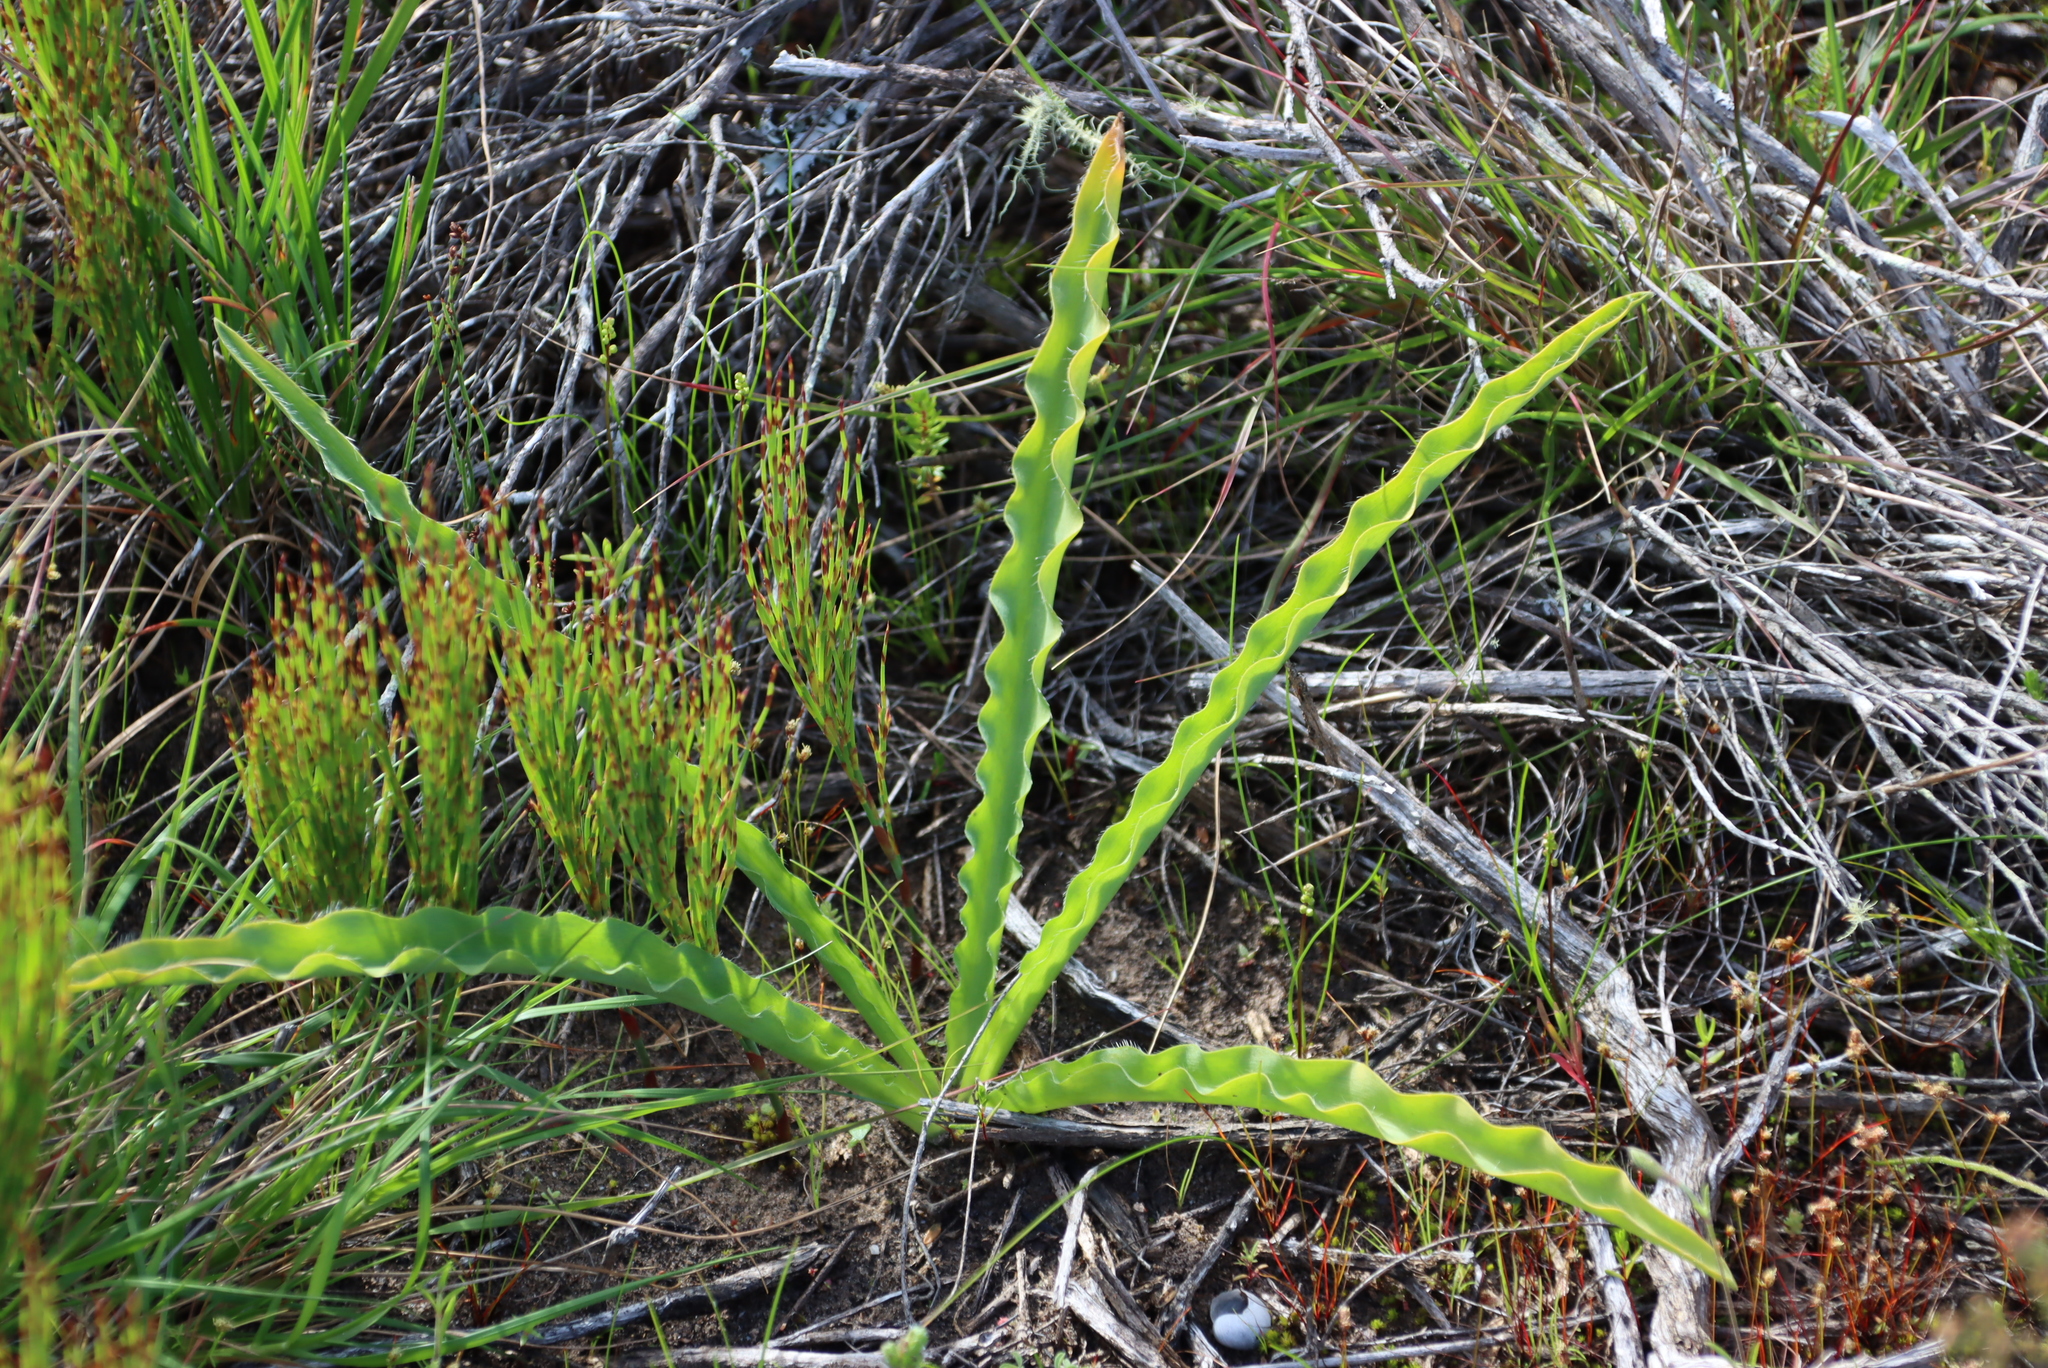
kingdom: Plantae
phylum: Tracheophyta
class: Liliopsida
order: Asparagales
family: Asparagaceae
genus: Drimia
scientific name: Drimia elata
